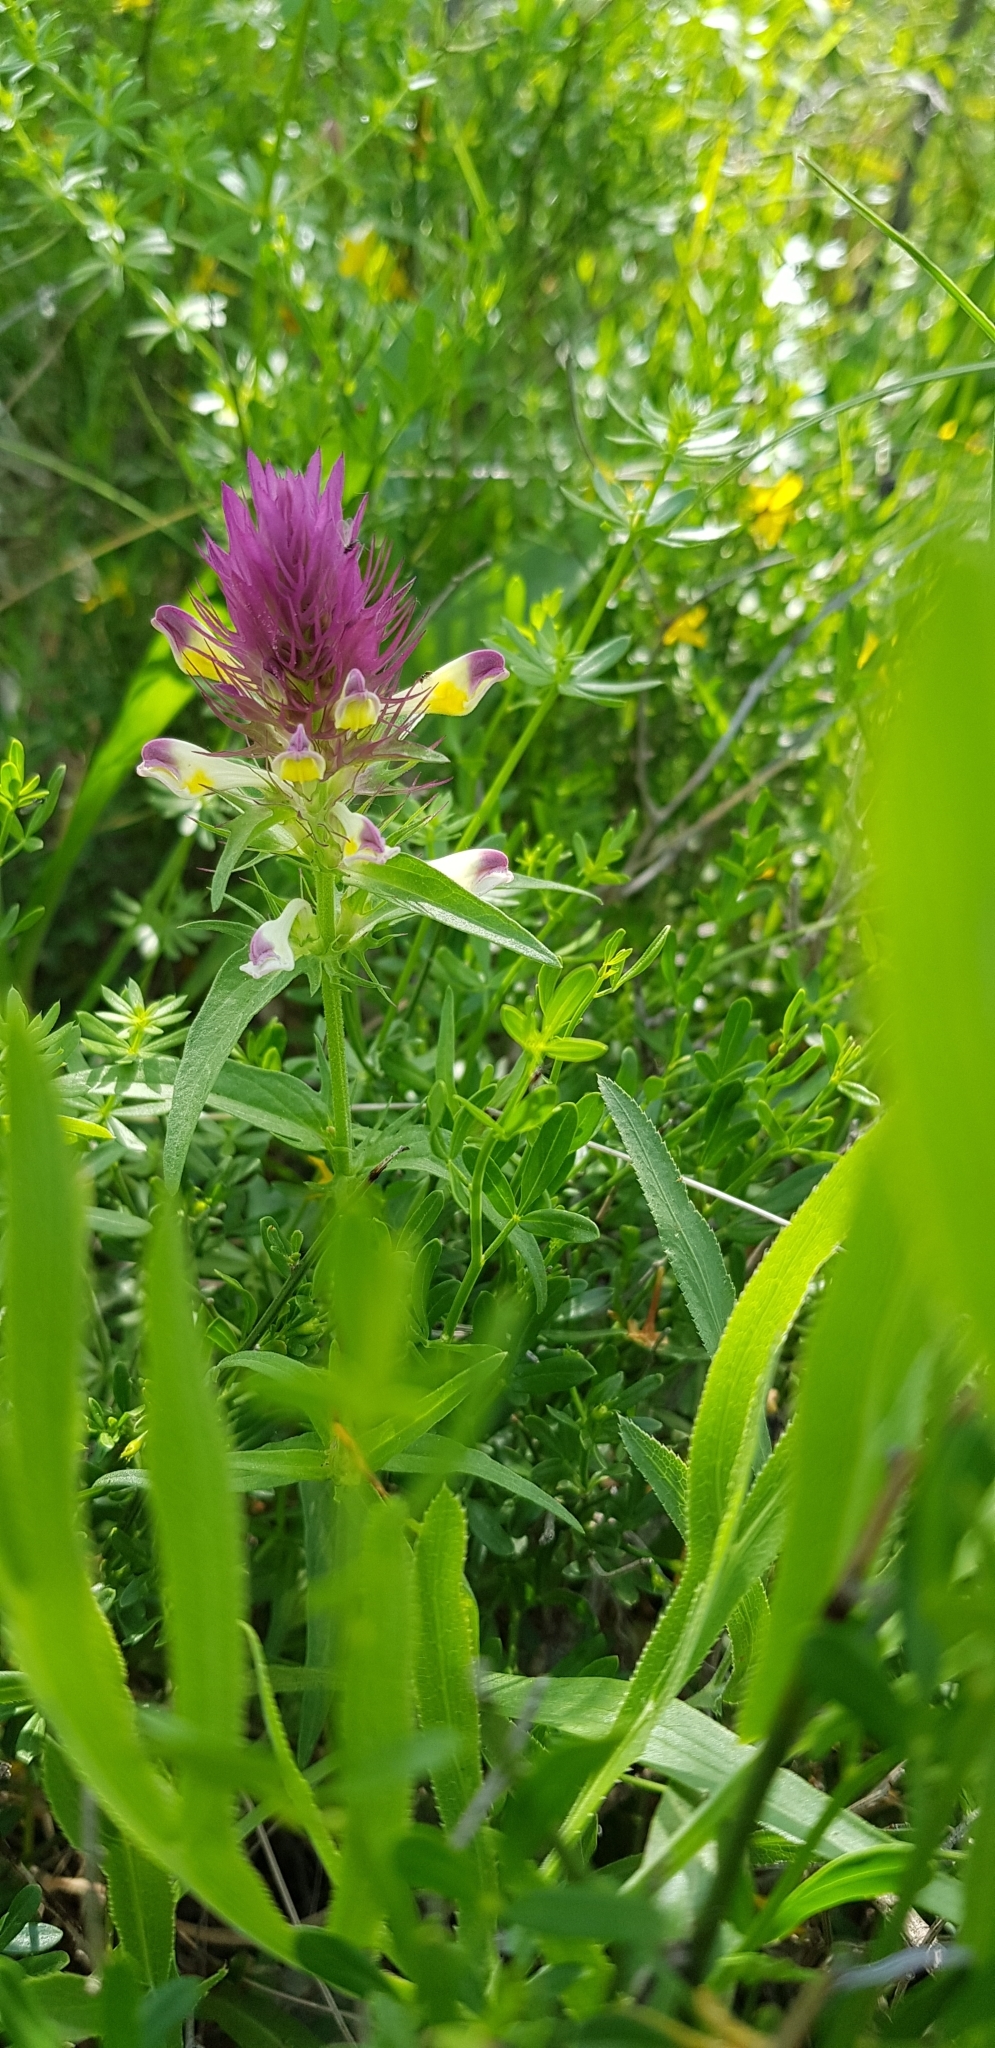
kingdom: Plantae
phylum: Tracheophyta
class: Magnoliopsida
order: Lamiales
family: Orobanchaceae
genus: Melampyrum
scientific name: Melampyrum arvense
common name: Field cow-wheat
